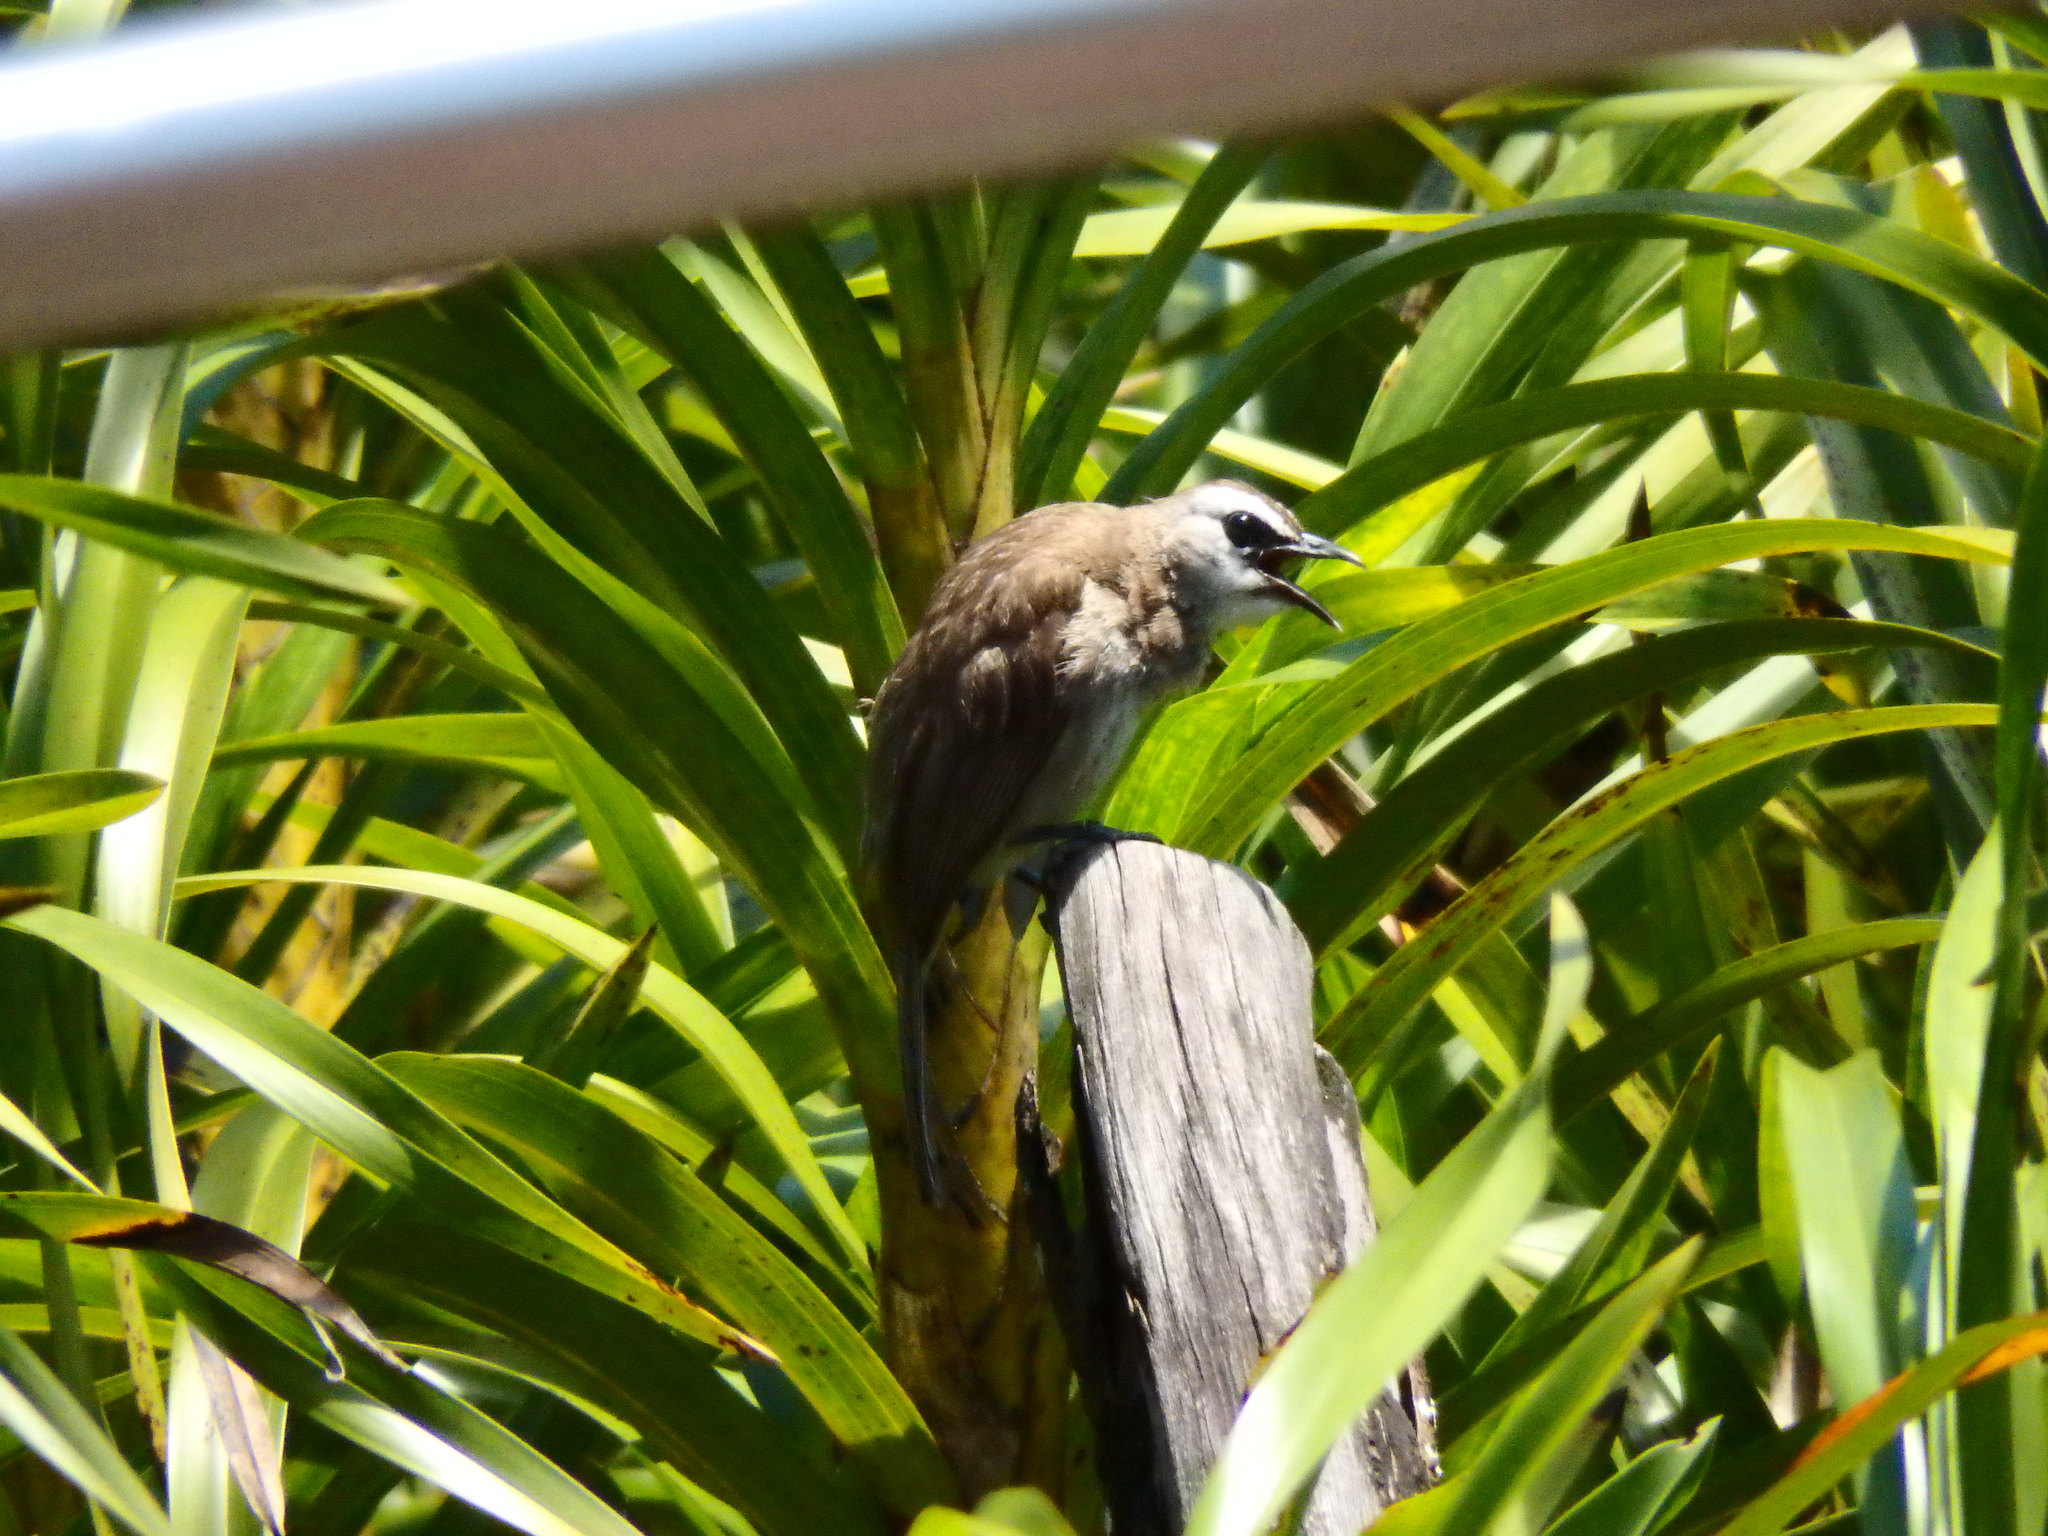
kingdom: Animalia
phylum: Chordata
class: Aves
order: Passeriformes
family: Pycnonotidae
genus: Pycnonotus
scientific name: Pycnonotus goiavier
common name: Yellow-vented bulbul
